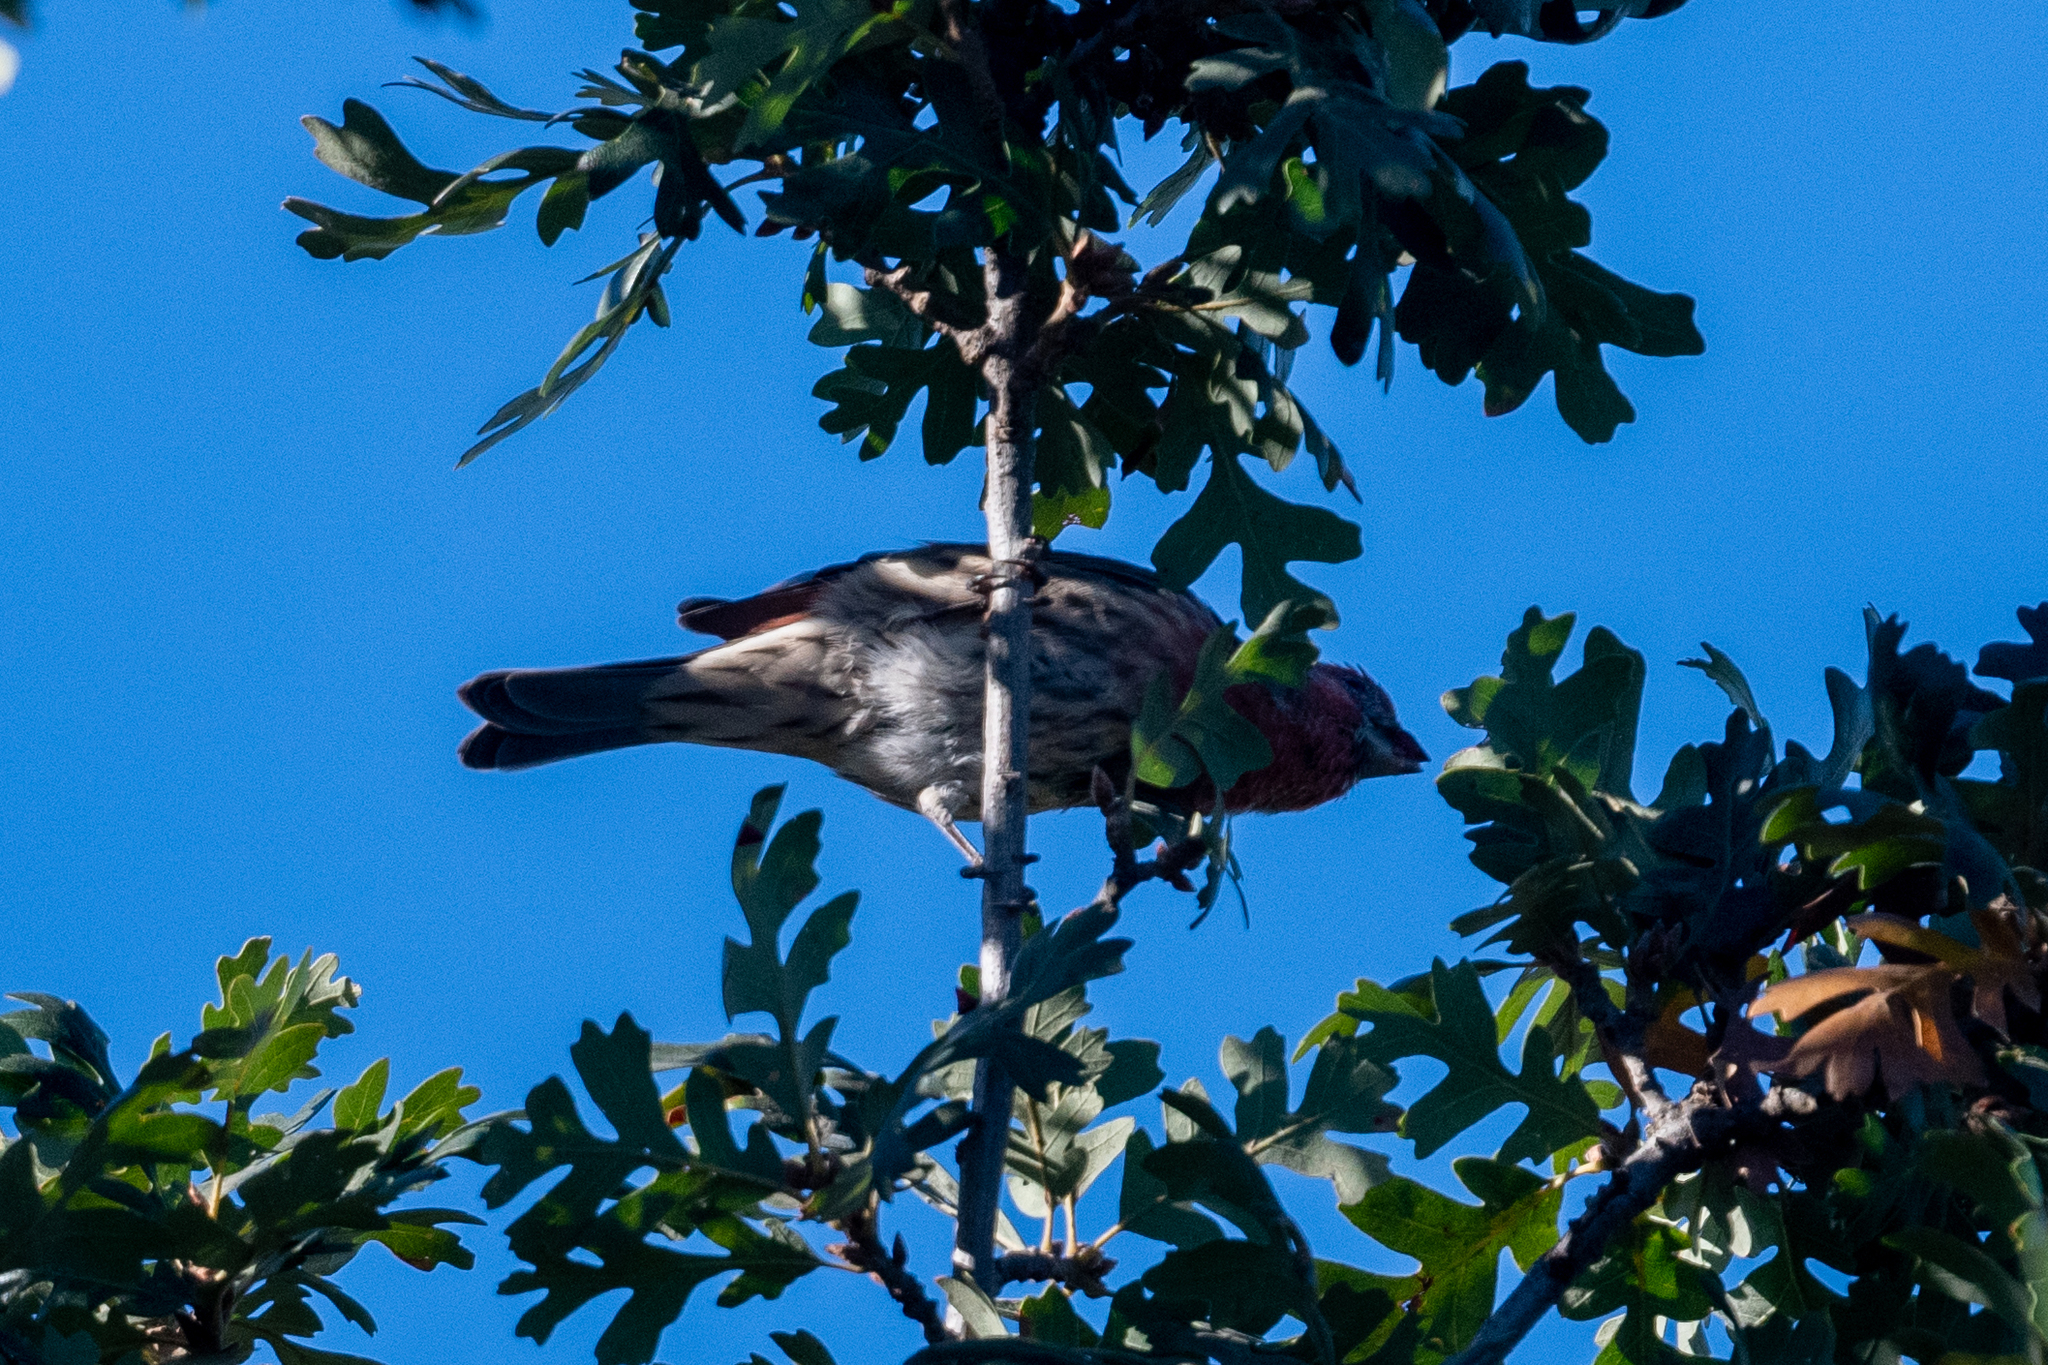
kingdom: Animalia
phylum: Chordata
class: Aves
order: Passeriformes
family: Fringillidae
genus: Haemorhous
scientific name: Haemorhous mexicanus
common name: House finch
